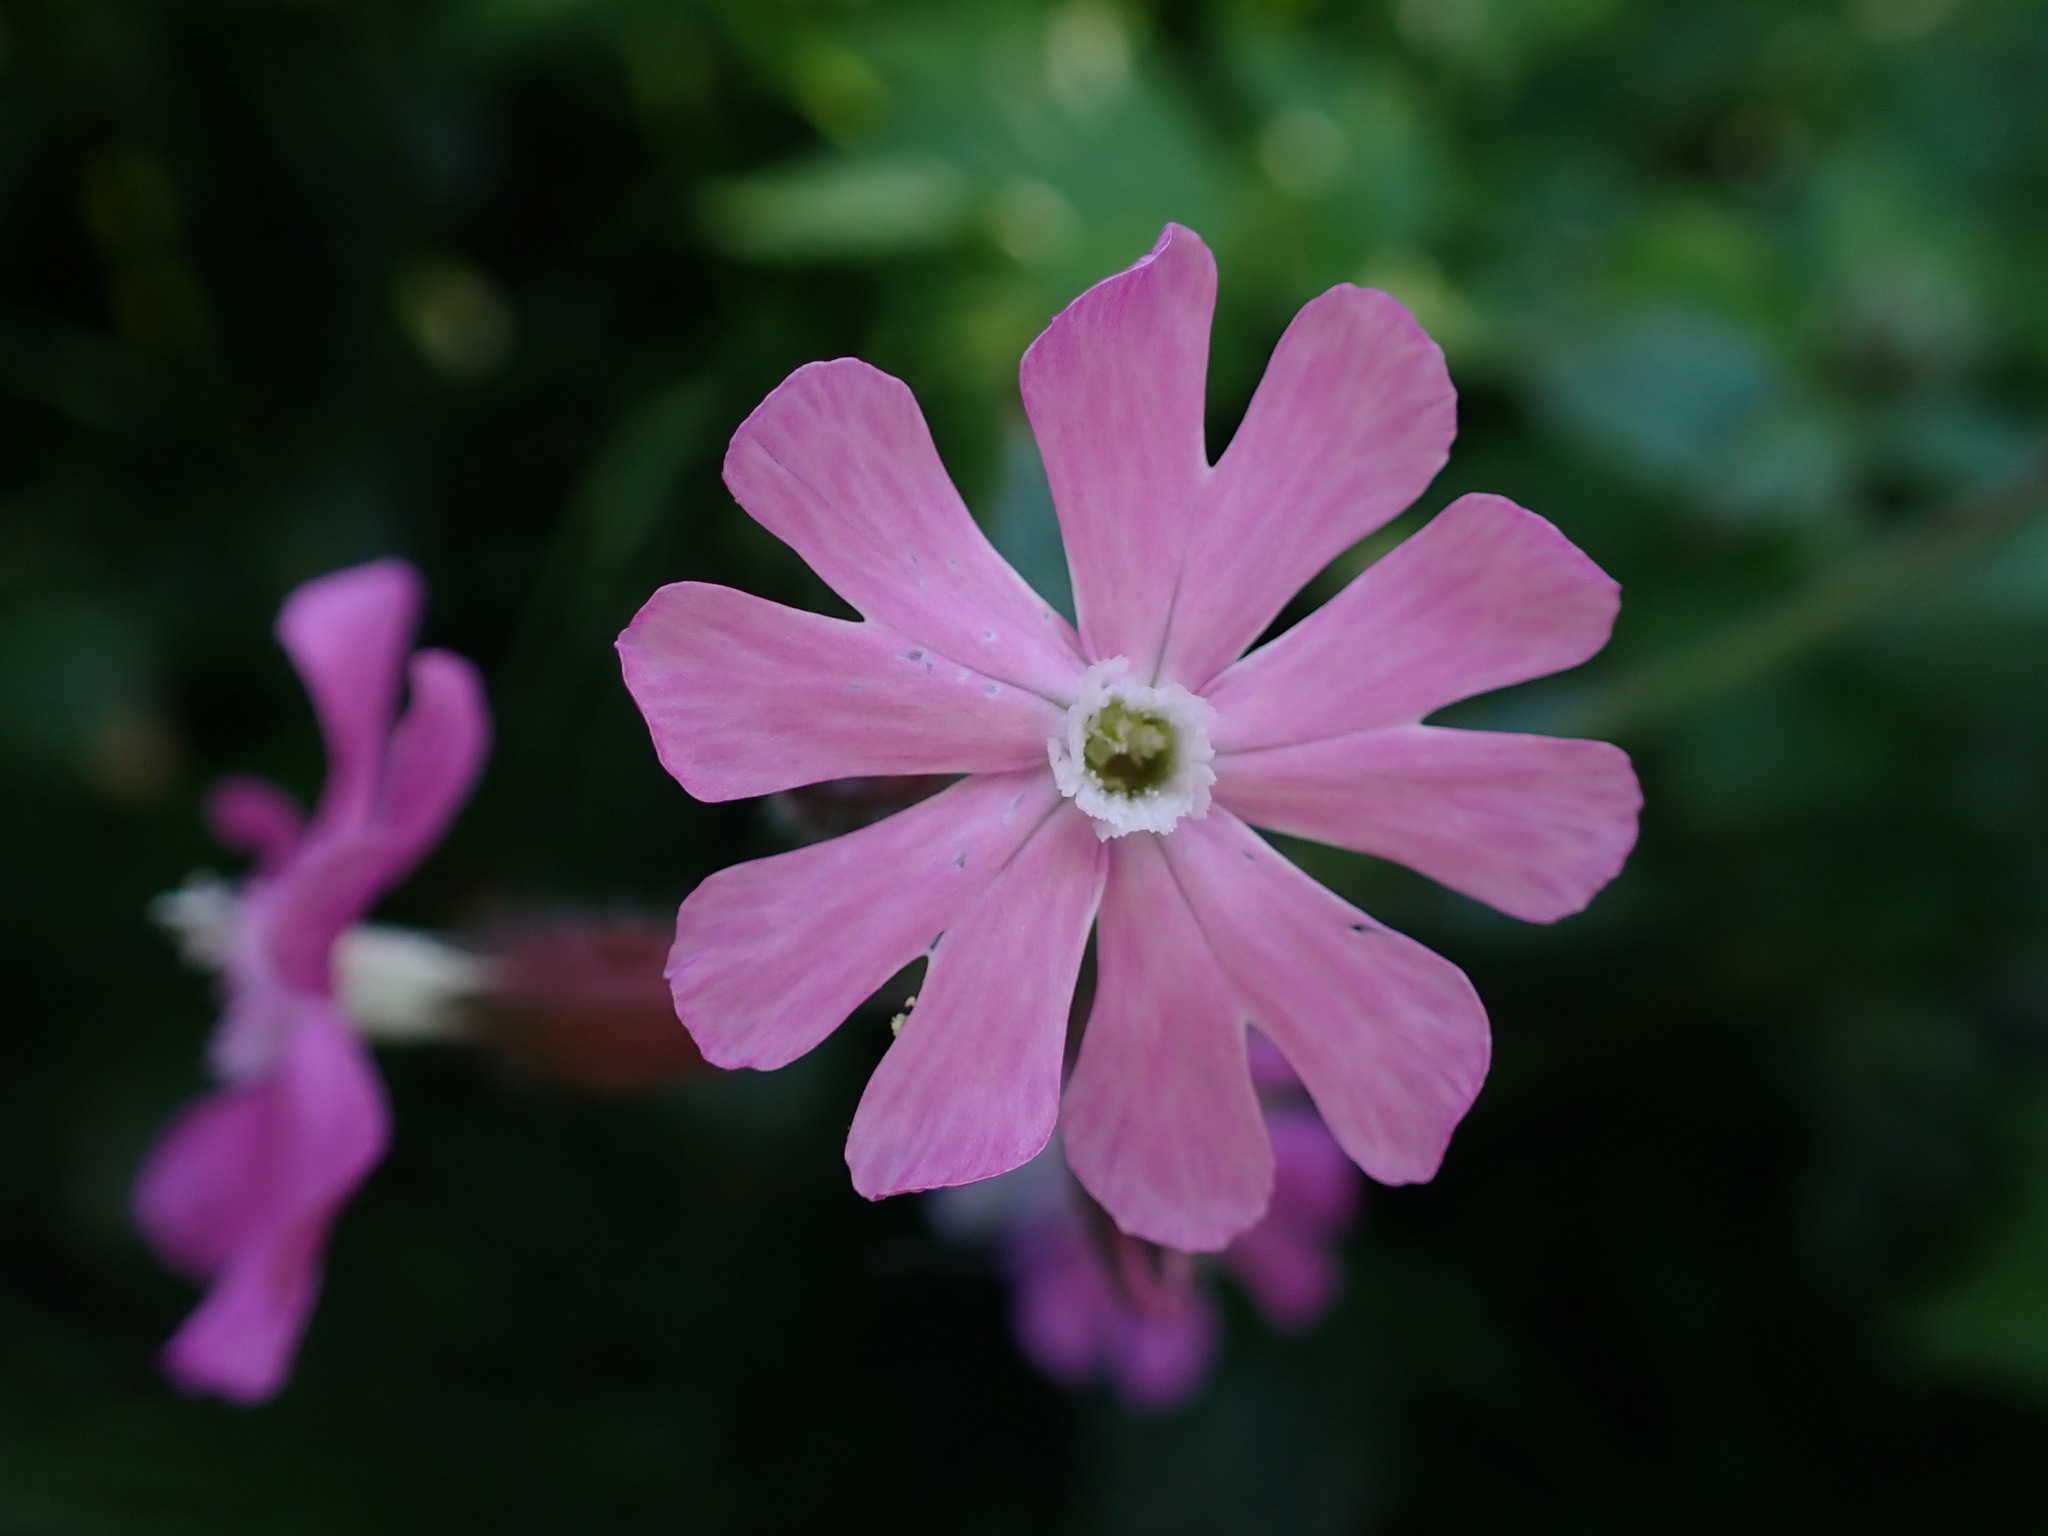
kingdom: Plantae
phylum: Tracheophyta
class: Magnoliopsida
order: Caryophyllales
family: Caryophyllaceae
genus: Silene
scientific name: Silene dioica
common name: Red campion
